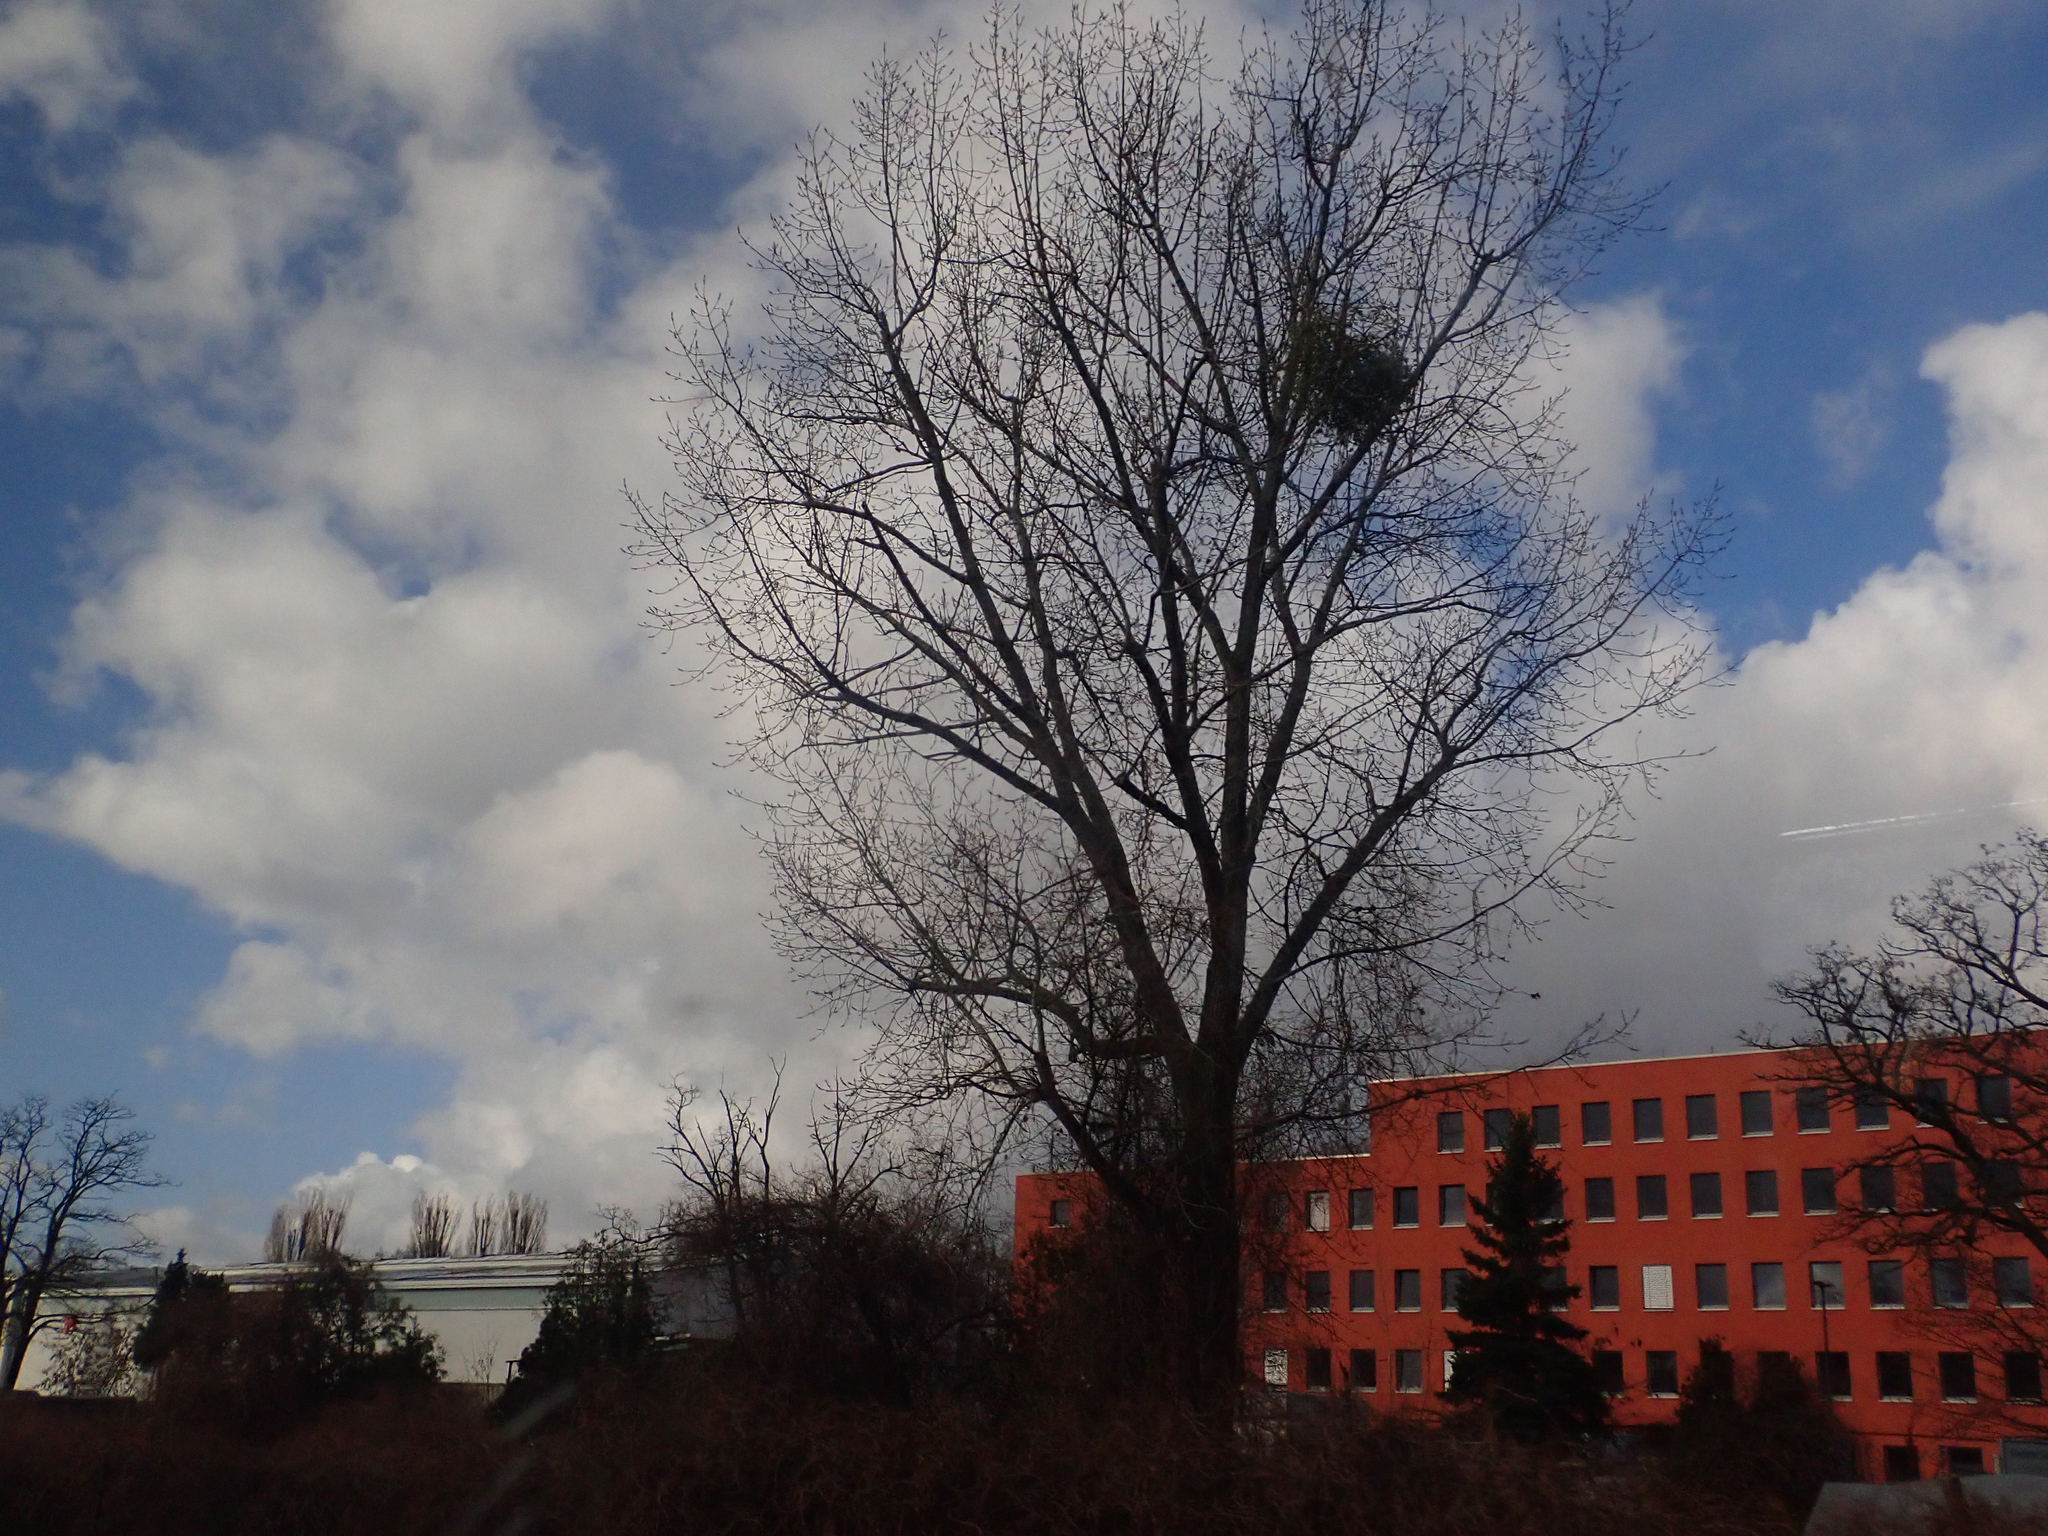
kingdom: Plantae
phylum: Tracheophyta
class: Magnoliopsida
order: Santalales
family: Viscaceae
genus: Viscum
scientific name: Viscum album
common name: Mistletoe
